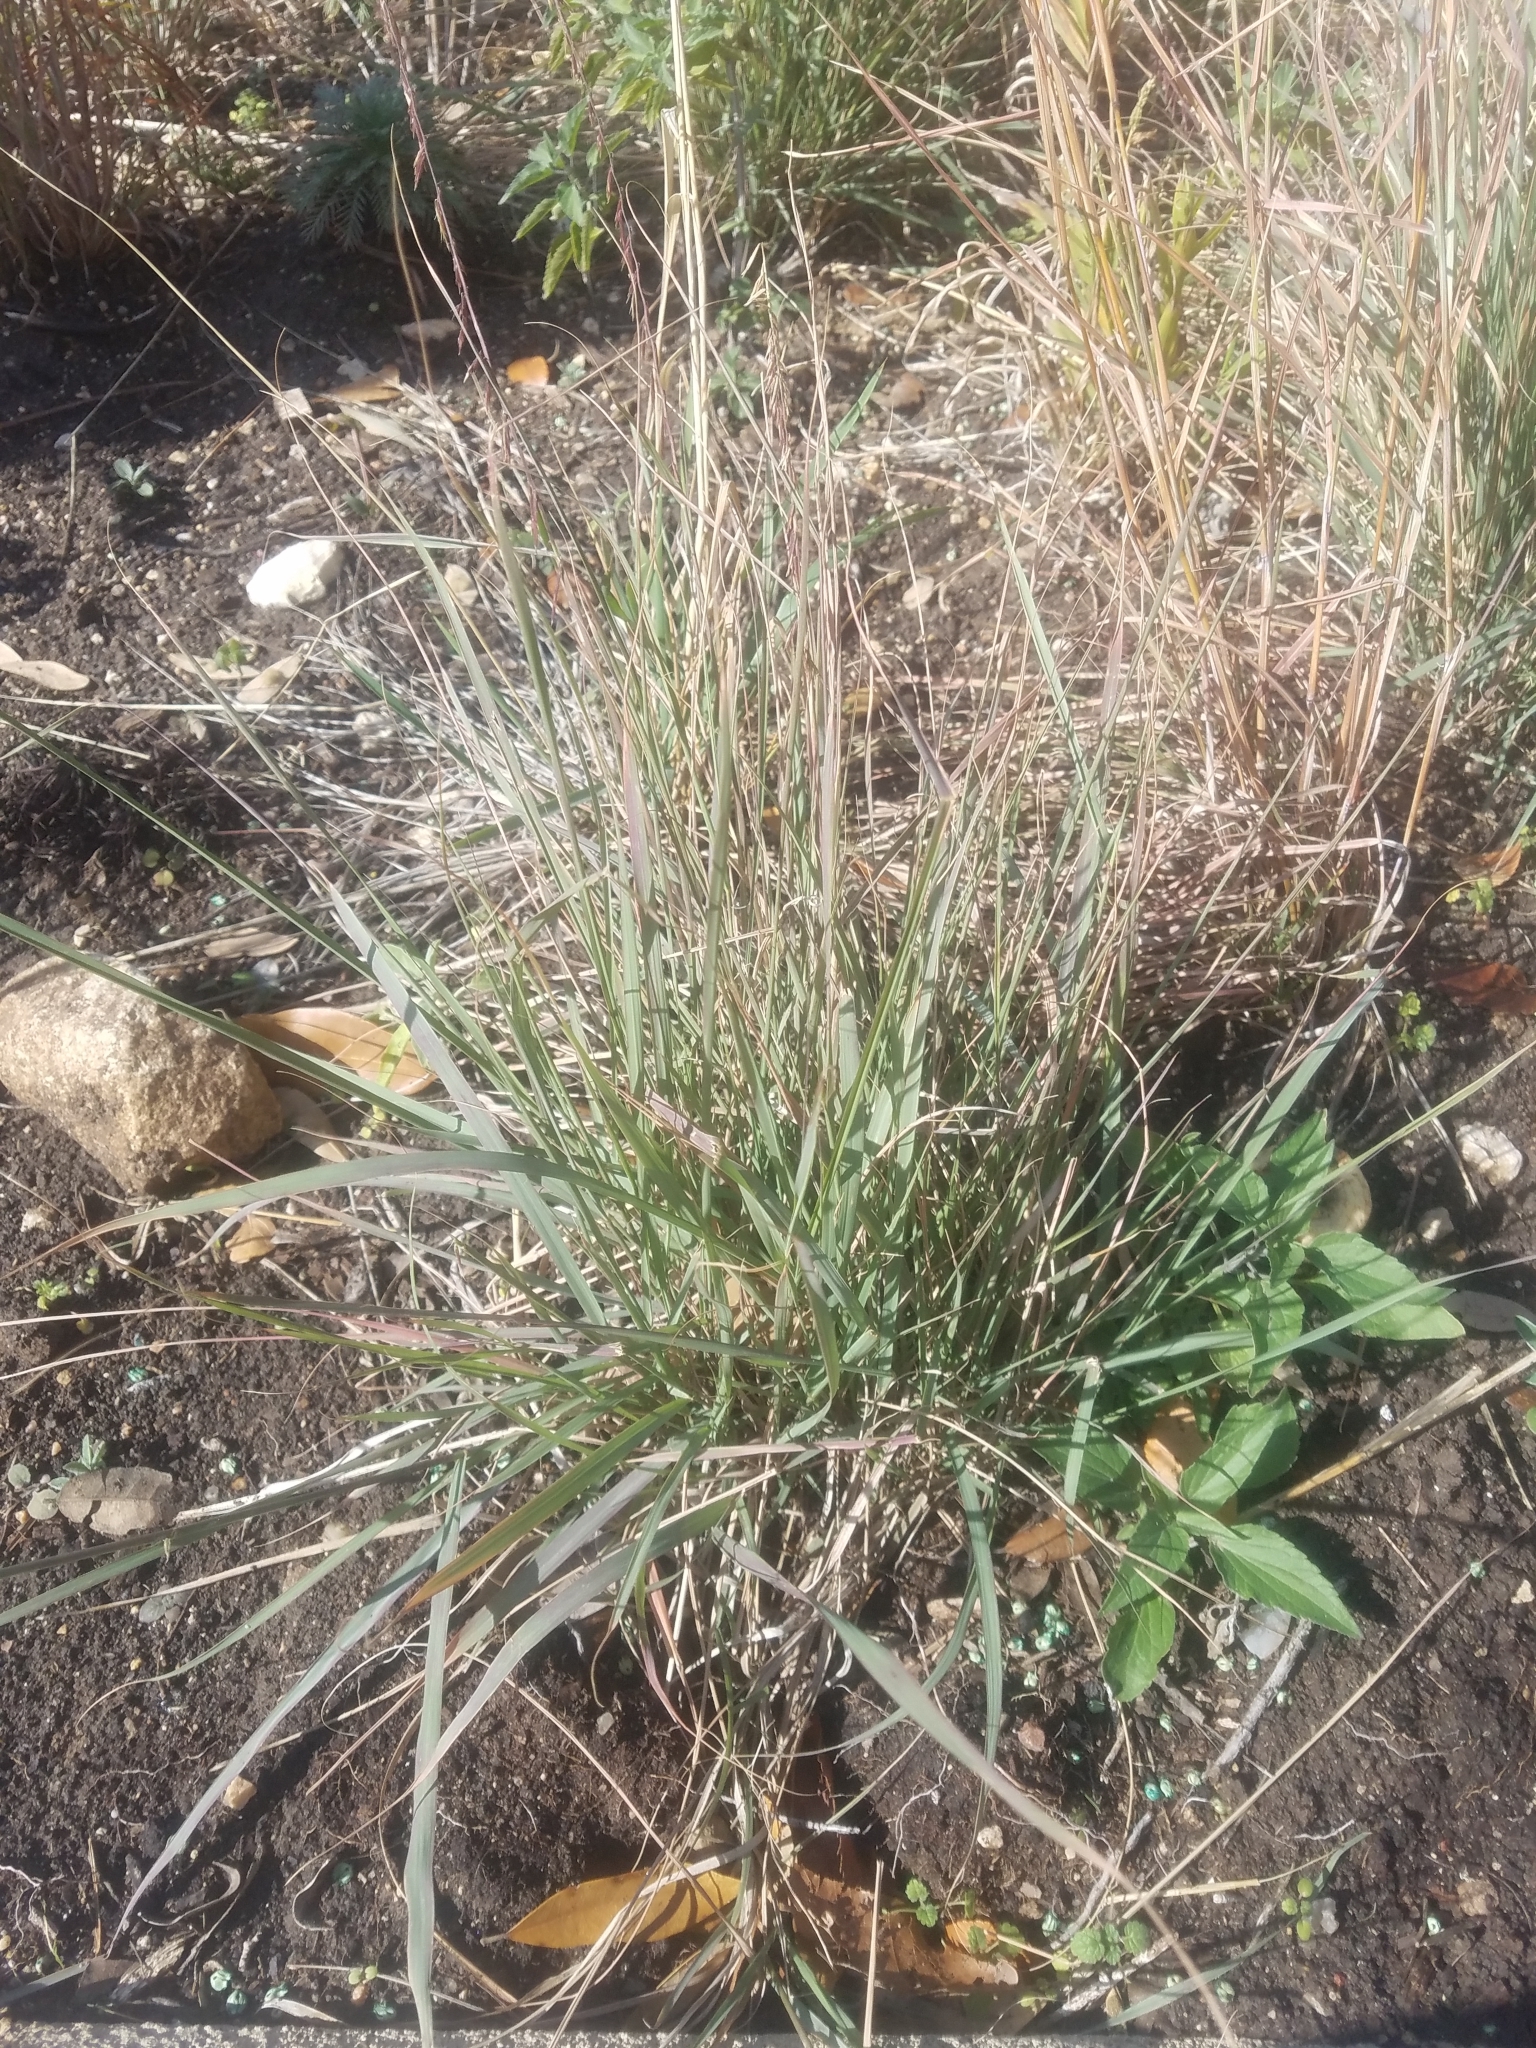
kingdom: Plantae
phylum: Tracheophyta
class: Liliopsida
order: Poales
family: Poaceae
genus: Bouteloua
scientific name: Bouteloua curtipendula
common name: Side-oats grama
